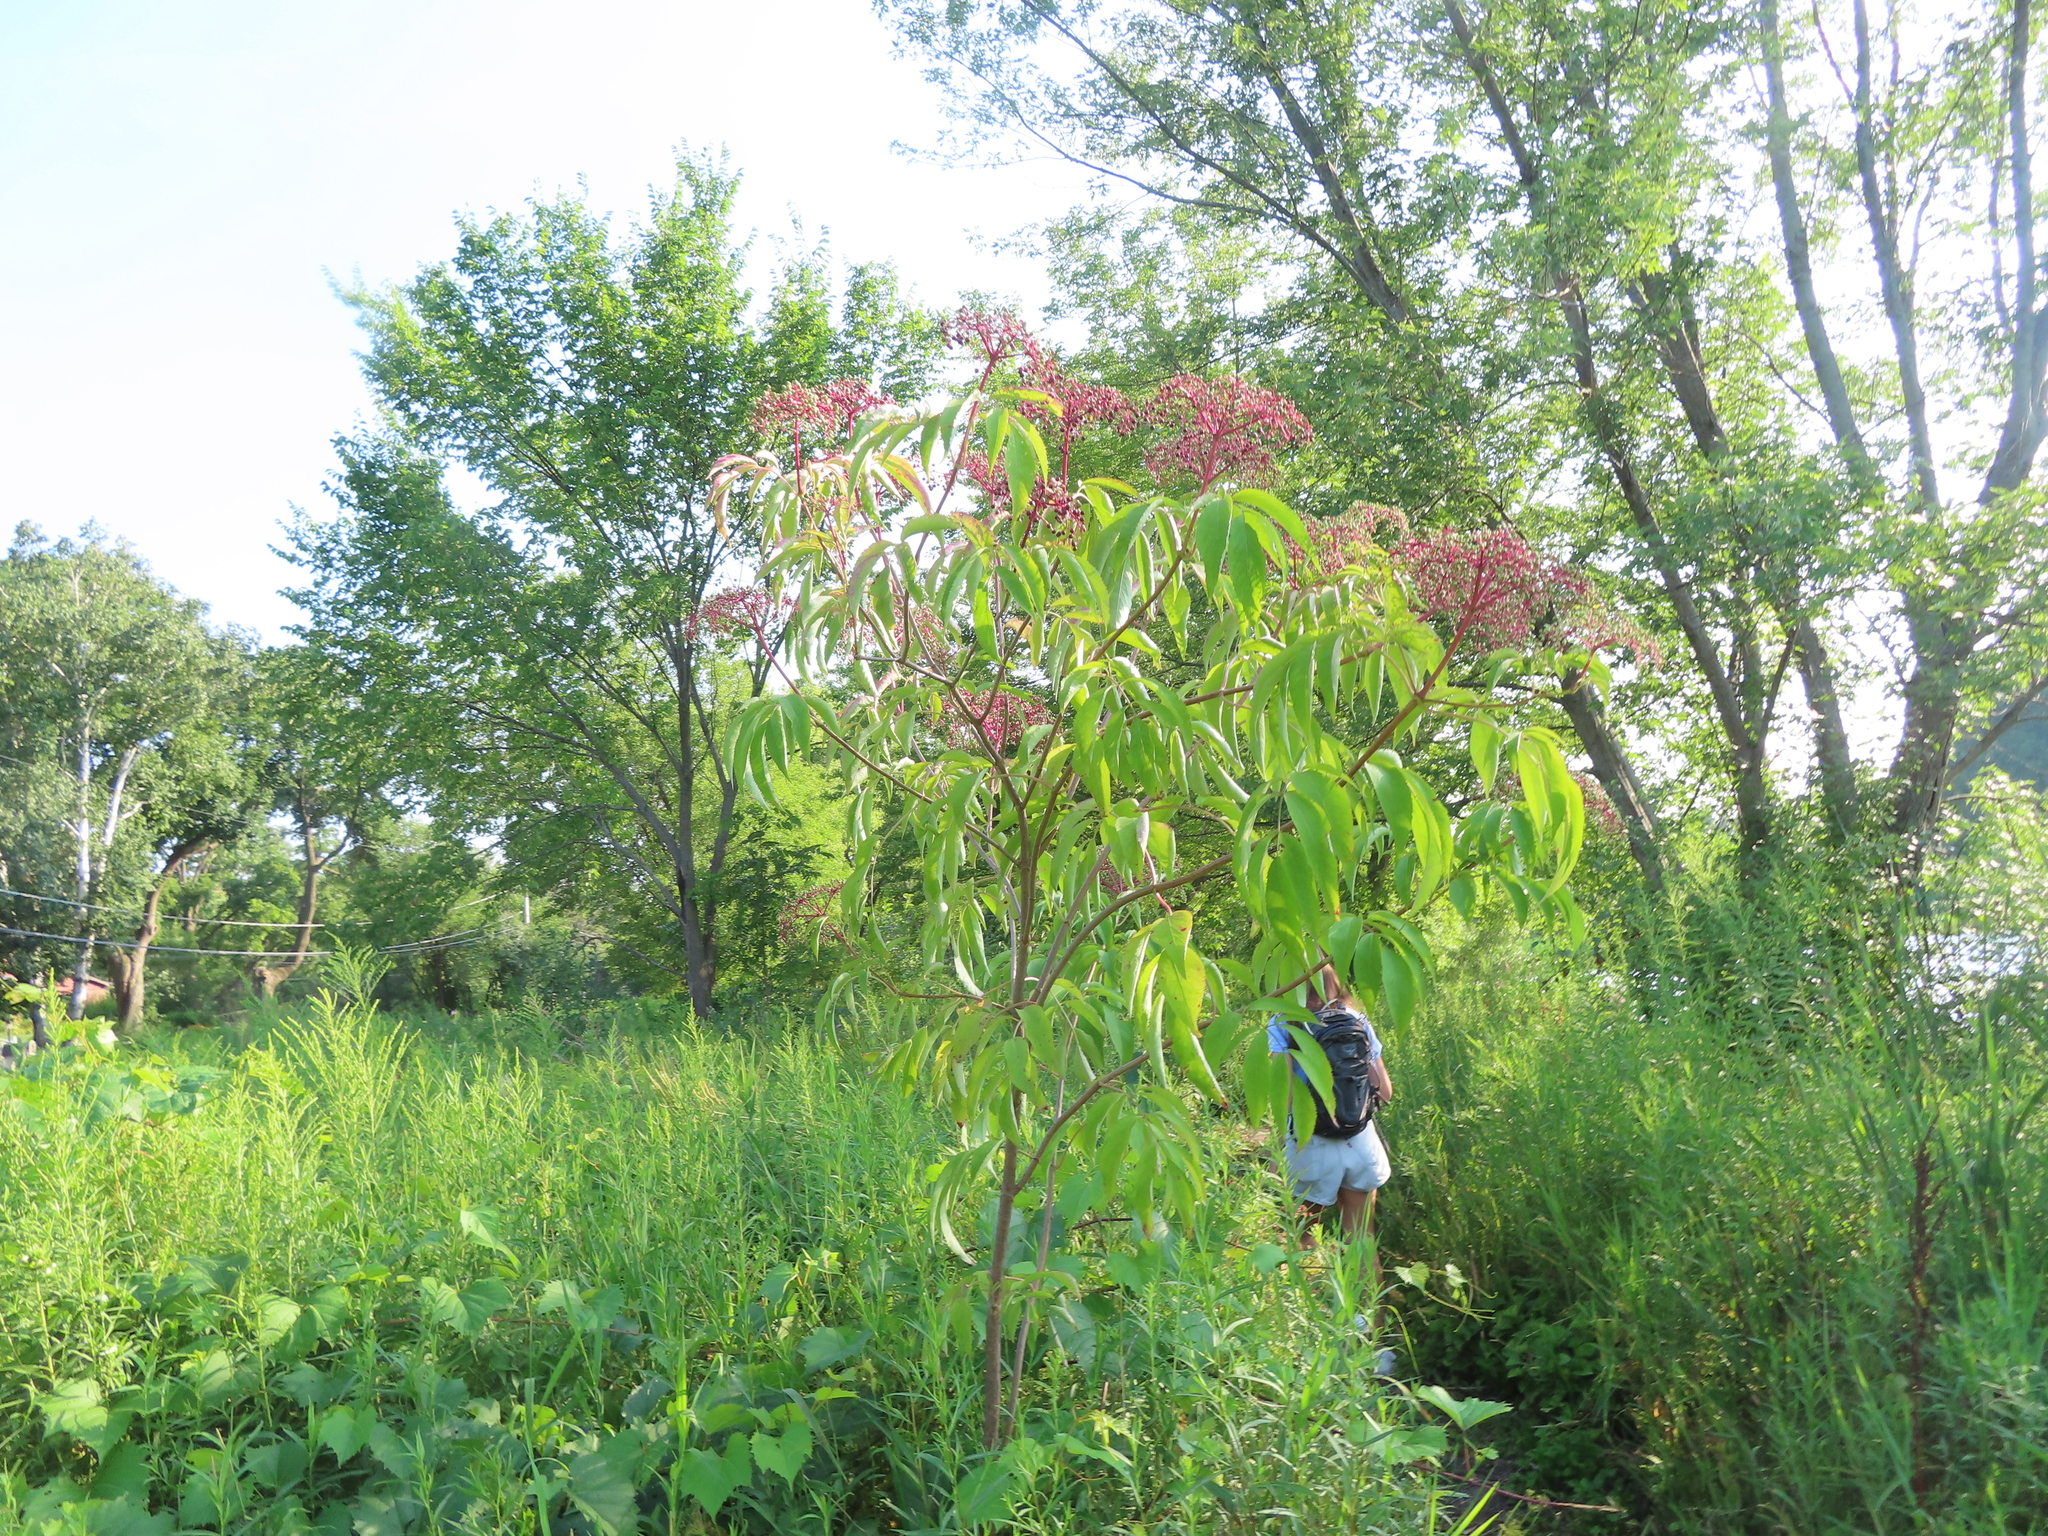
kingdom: Plantae
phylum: Tracheophyta
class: Magnoliopsida
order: Dipsacales
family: Viburnaceae
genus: Sambucus
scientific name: Sambucus canadensis
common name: American elder
